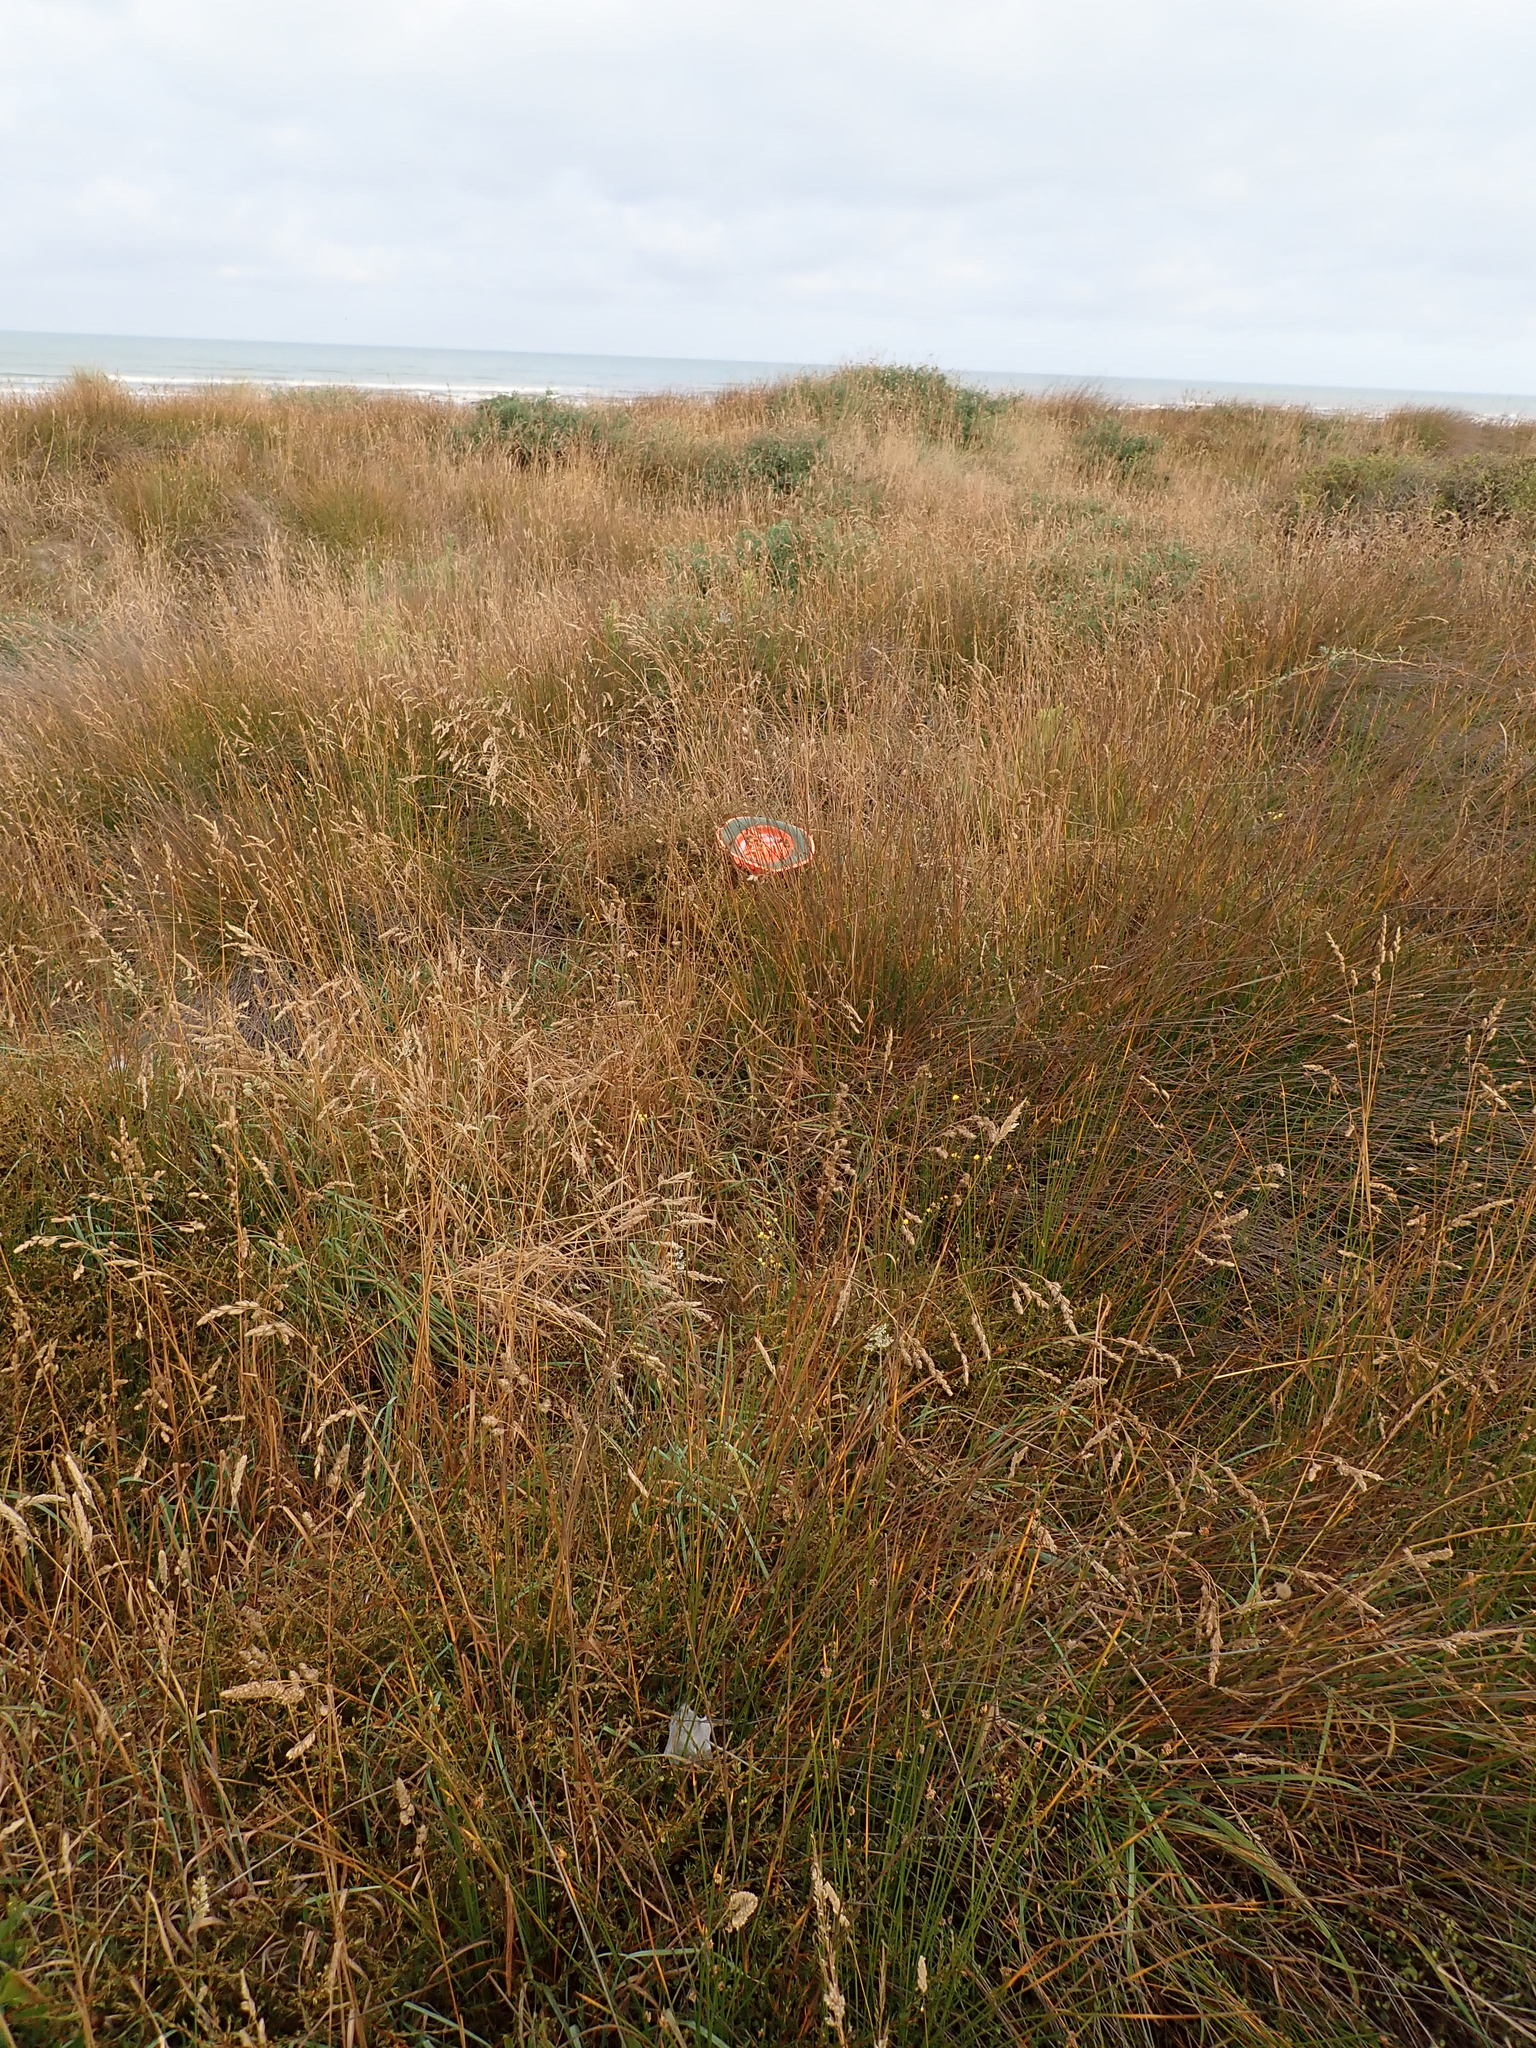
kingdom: Plantae
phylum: Tracheophyta
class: Magnoliopsida
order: Gentianales
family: Rubiaceae
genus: Coprosma
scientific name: Coprosma acerosa
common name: Sand coprosma
